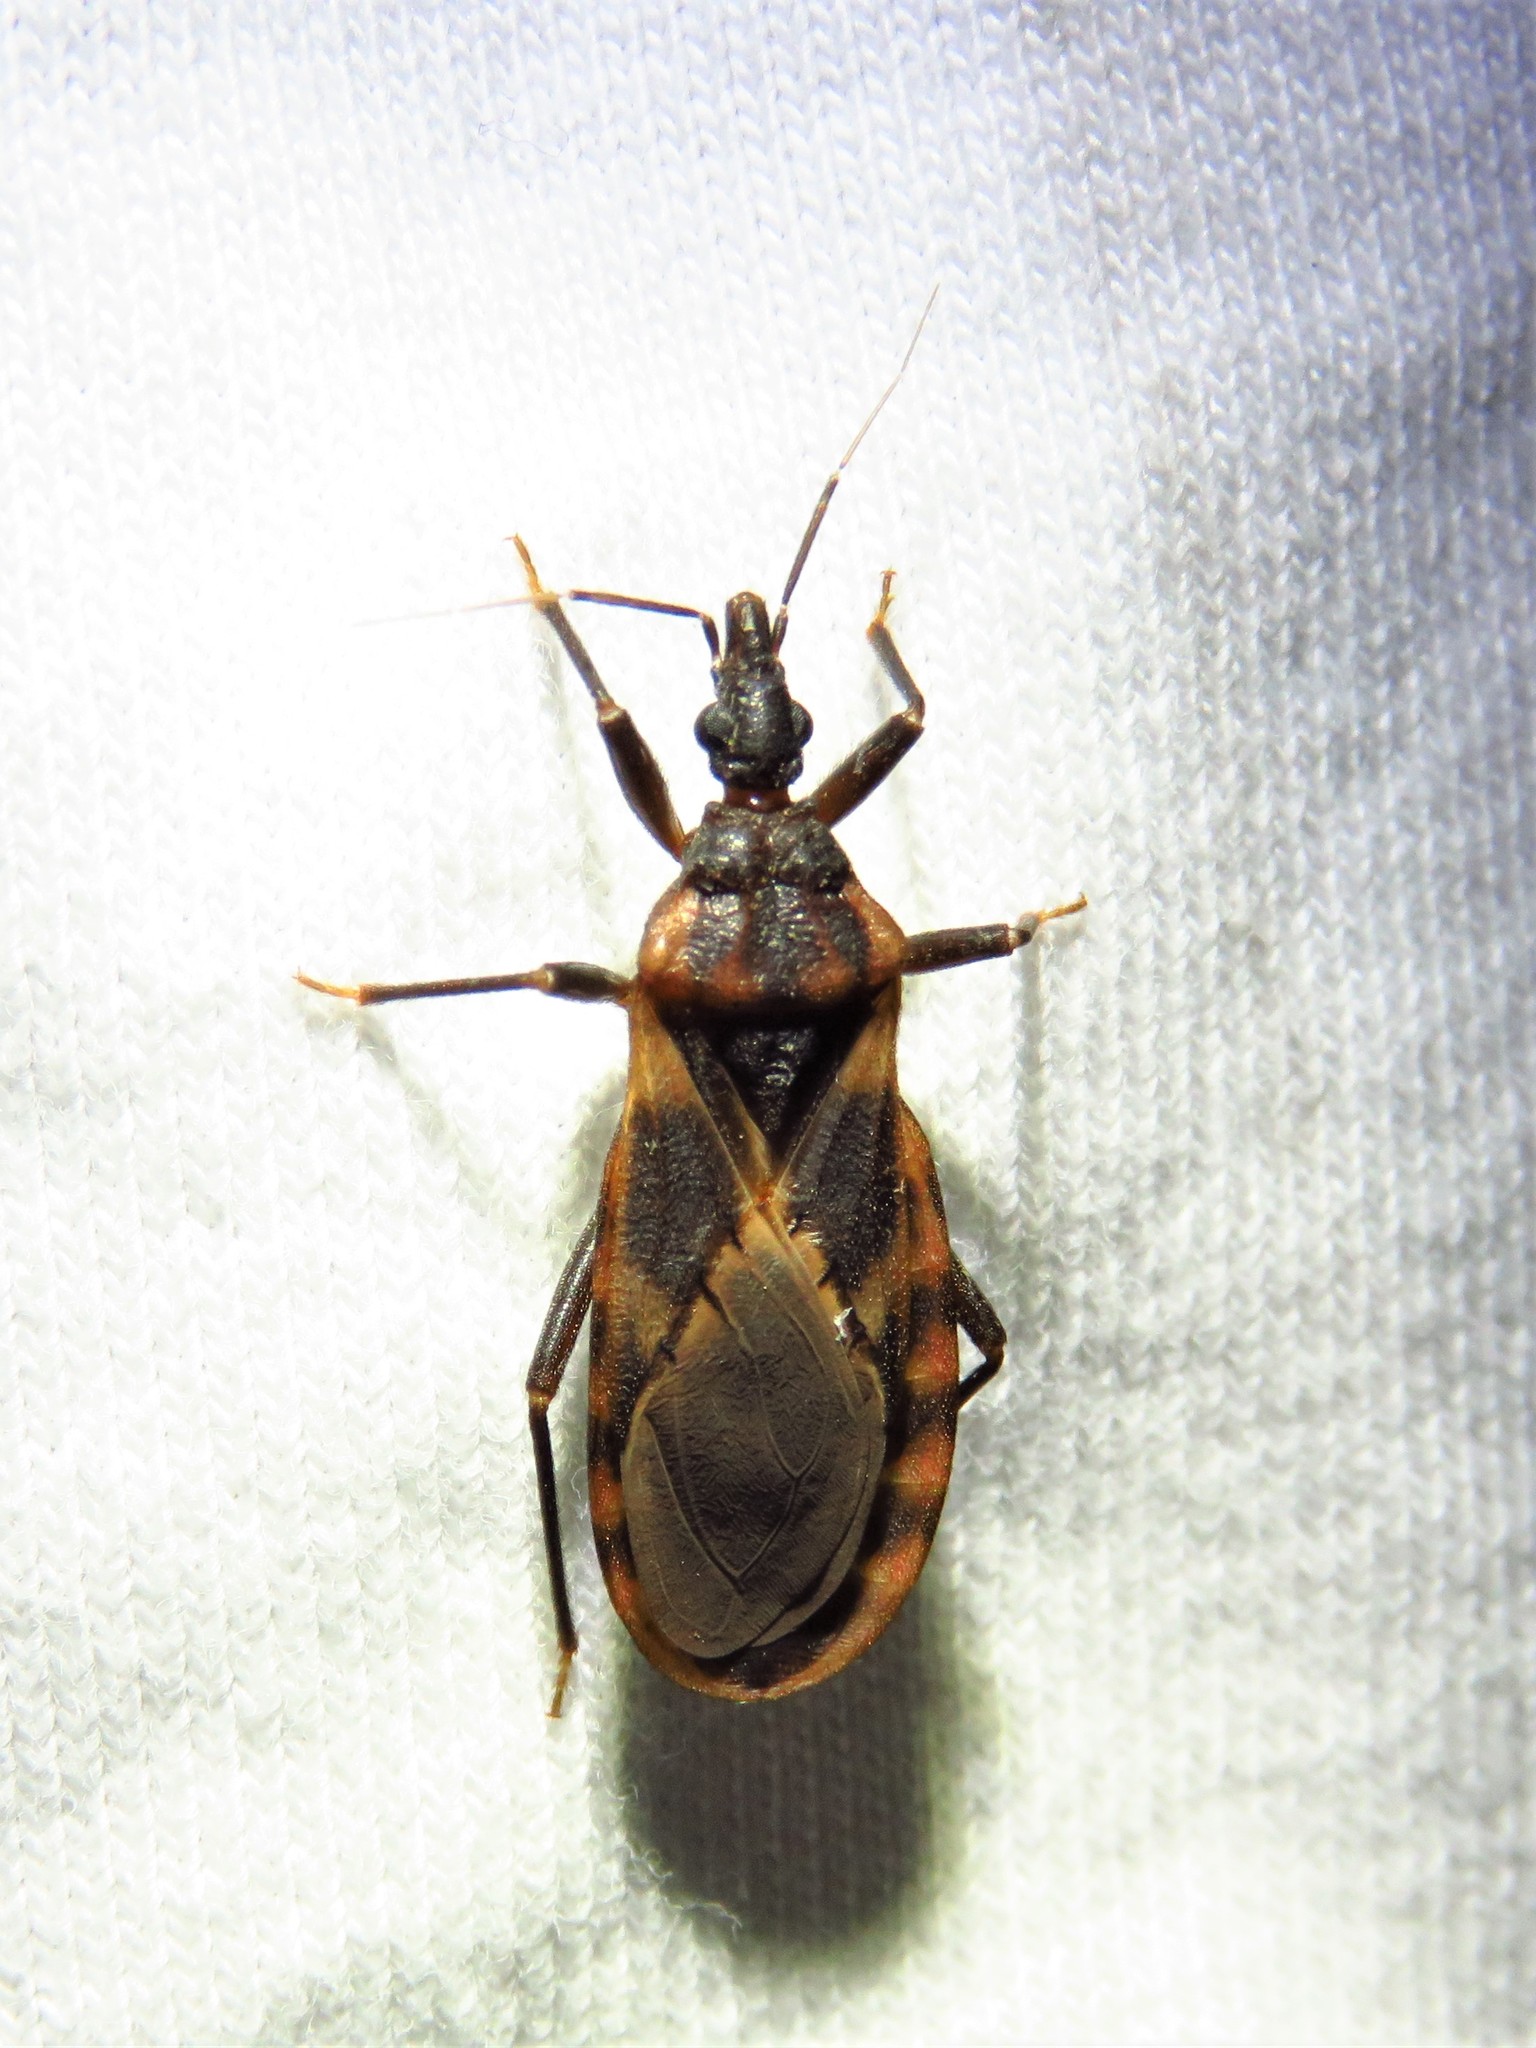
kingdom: Animalia
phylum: Arthropoda
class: Insecta
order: Hemiptera
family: Reduviidae
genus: Triatoma
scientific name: Triatoma lecticularia
